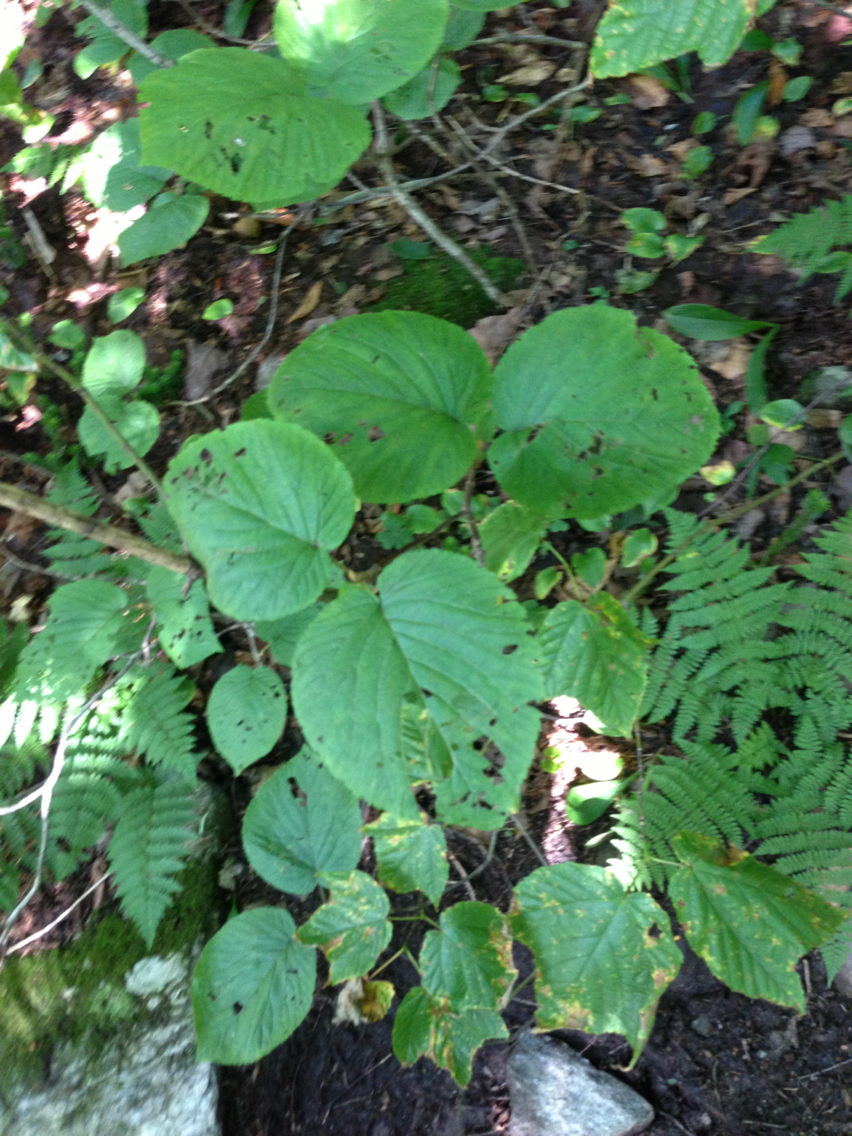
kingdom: Plantae
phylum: Tracheophyta
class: Magnoliopsida
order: Dipsacales
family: Viburnaceae
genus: Viburnum
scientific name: Viburnum lantanoides
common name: Hobblebush
